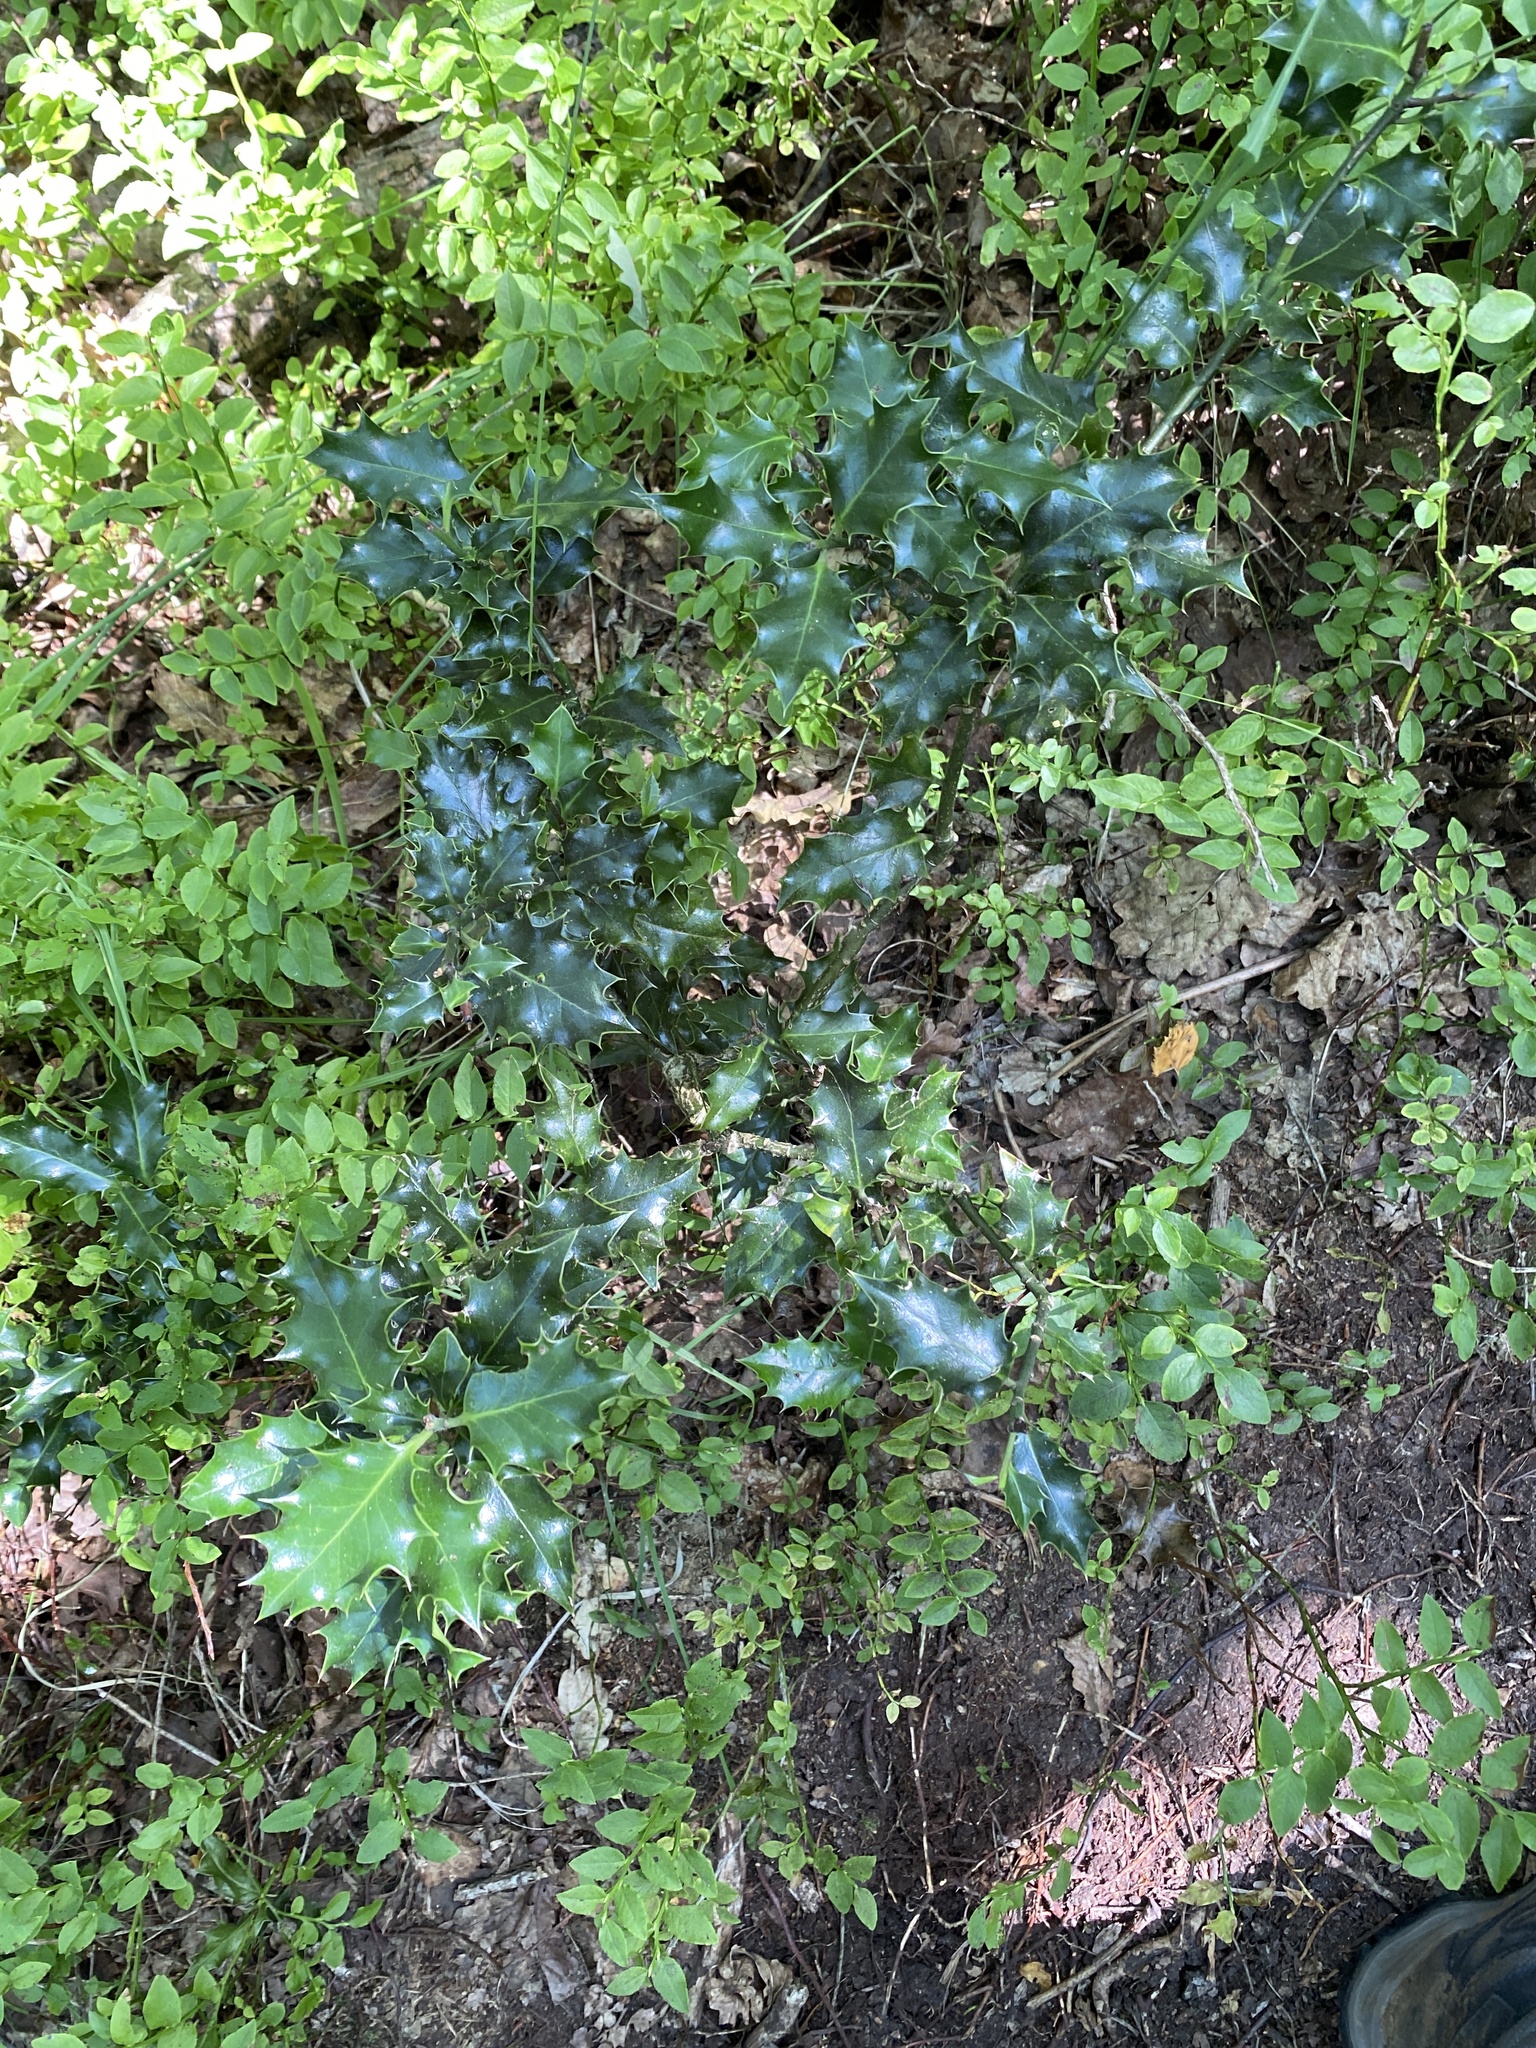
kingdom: Plantae
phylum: Tracheophyta
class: Magnoliopsida
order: Aquifoliales
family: Aquifoliaceae
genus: Ilex
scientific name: Ilex aquifolium
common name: English holly
